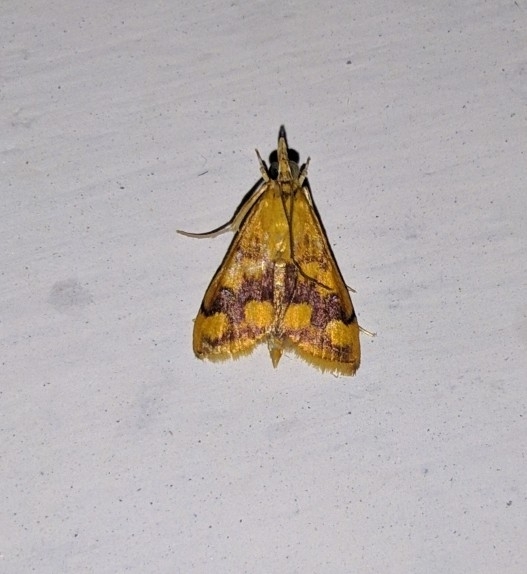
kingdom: Animalia
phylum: Arthropoda
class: Insecta
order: Lepidoptera
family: Crambidae
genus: Pyrausta
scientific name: Pyrausta phoenicealis
